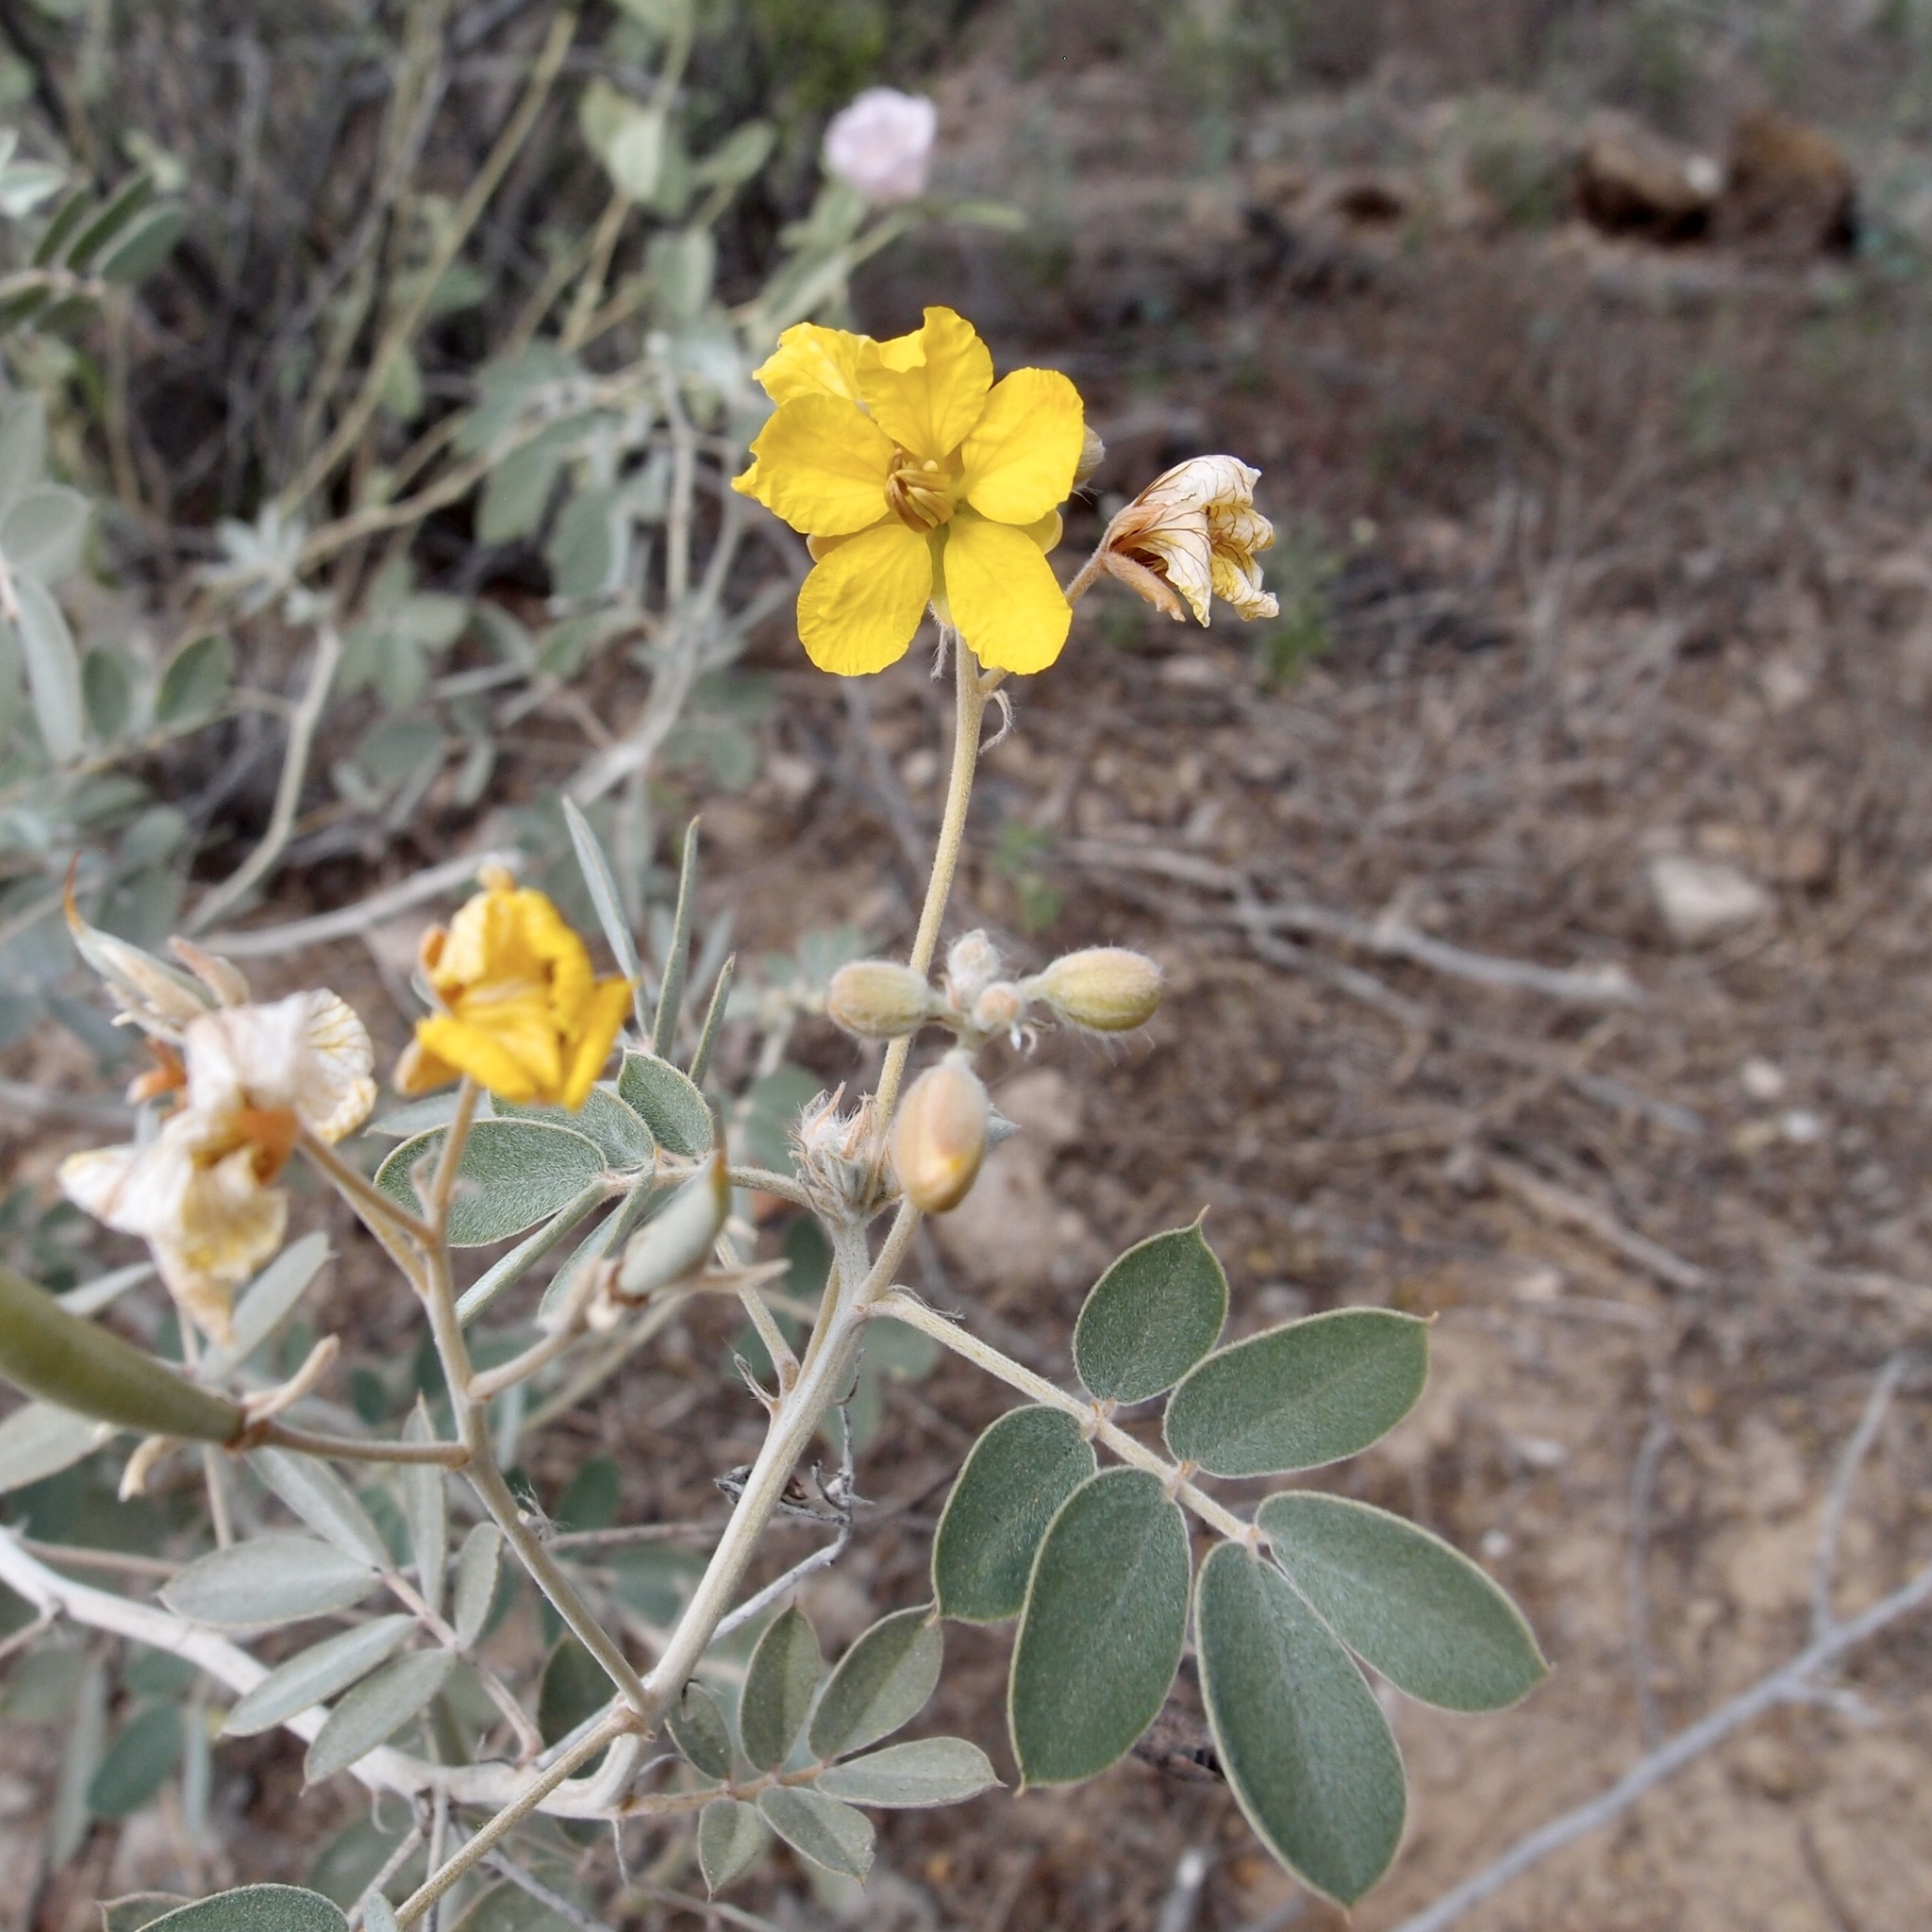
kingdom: Plantae
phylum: Tracheophyta
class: Magnoliopsida
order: Fabales
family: Fabaceae
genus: Senna
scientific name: Senna covesii
